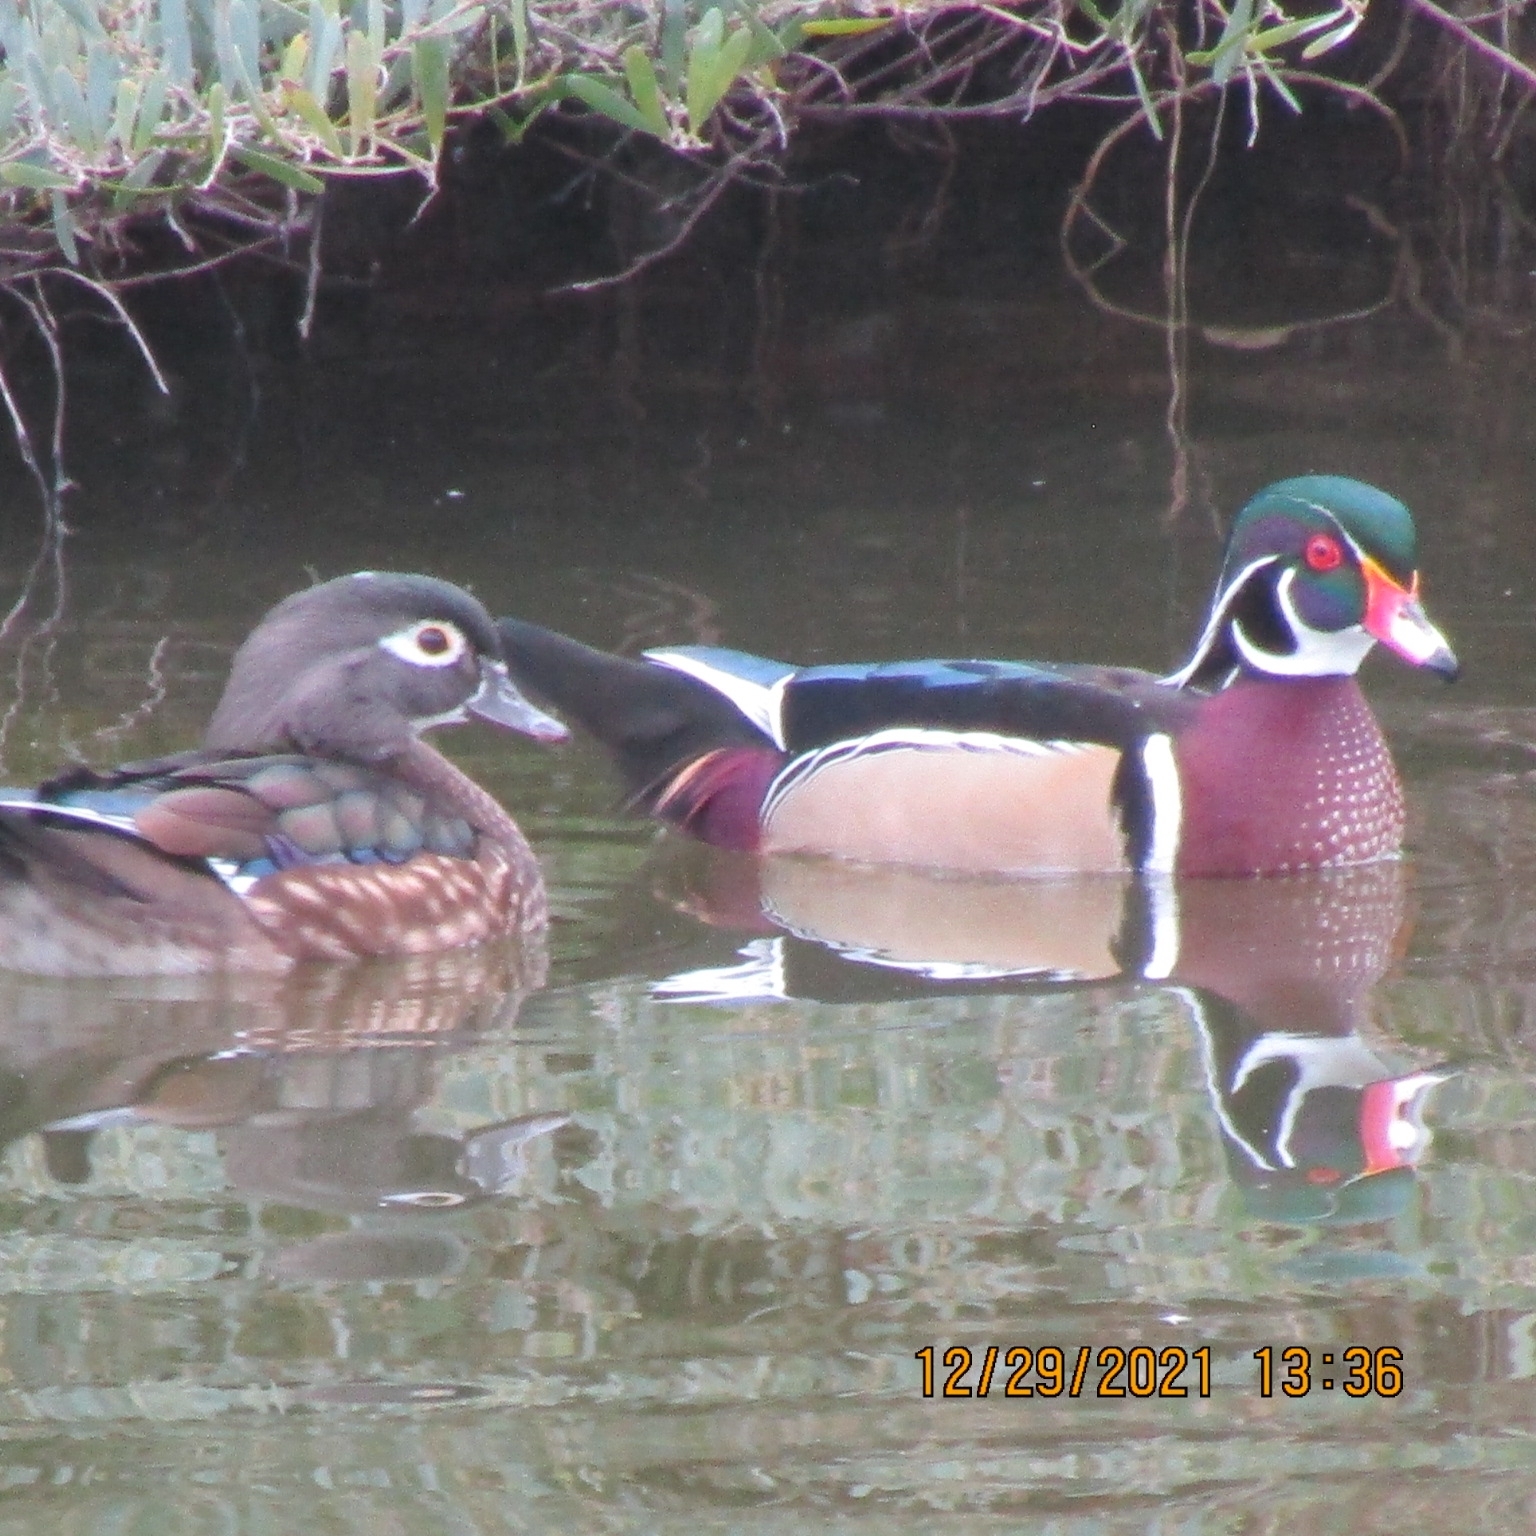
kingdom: Animalia
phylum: Chordata
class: Aves
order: Anseriformes
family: Anatidae
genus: Aix
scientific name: Aix sponsa
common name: Wood duck
